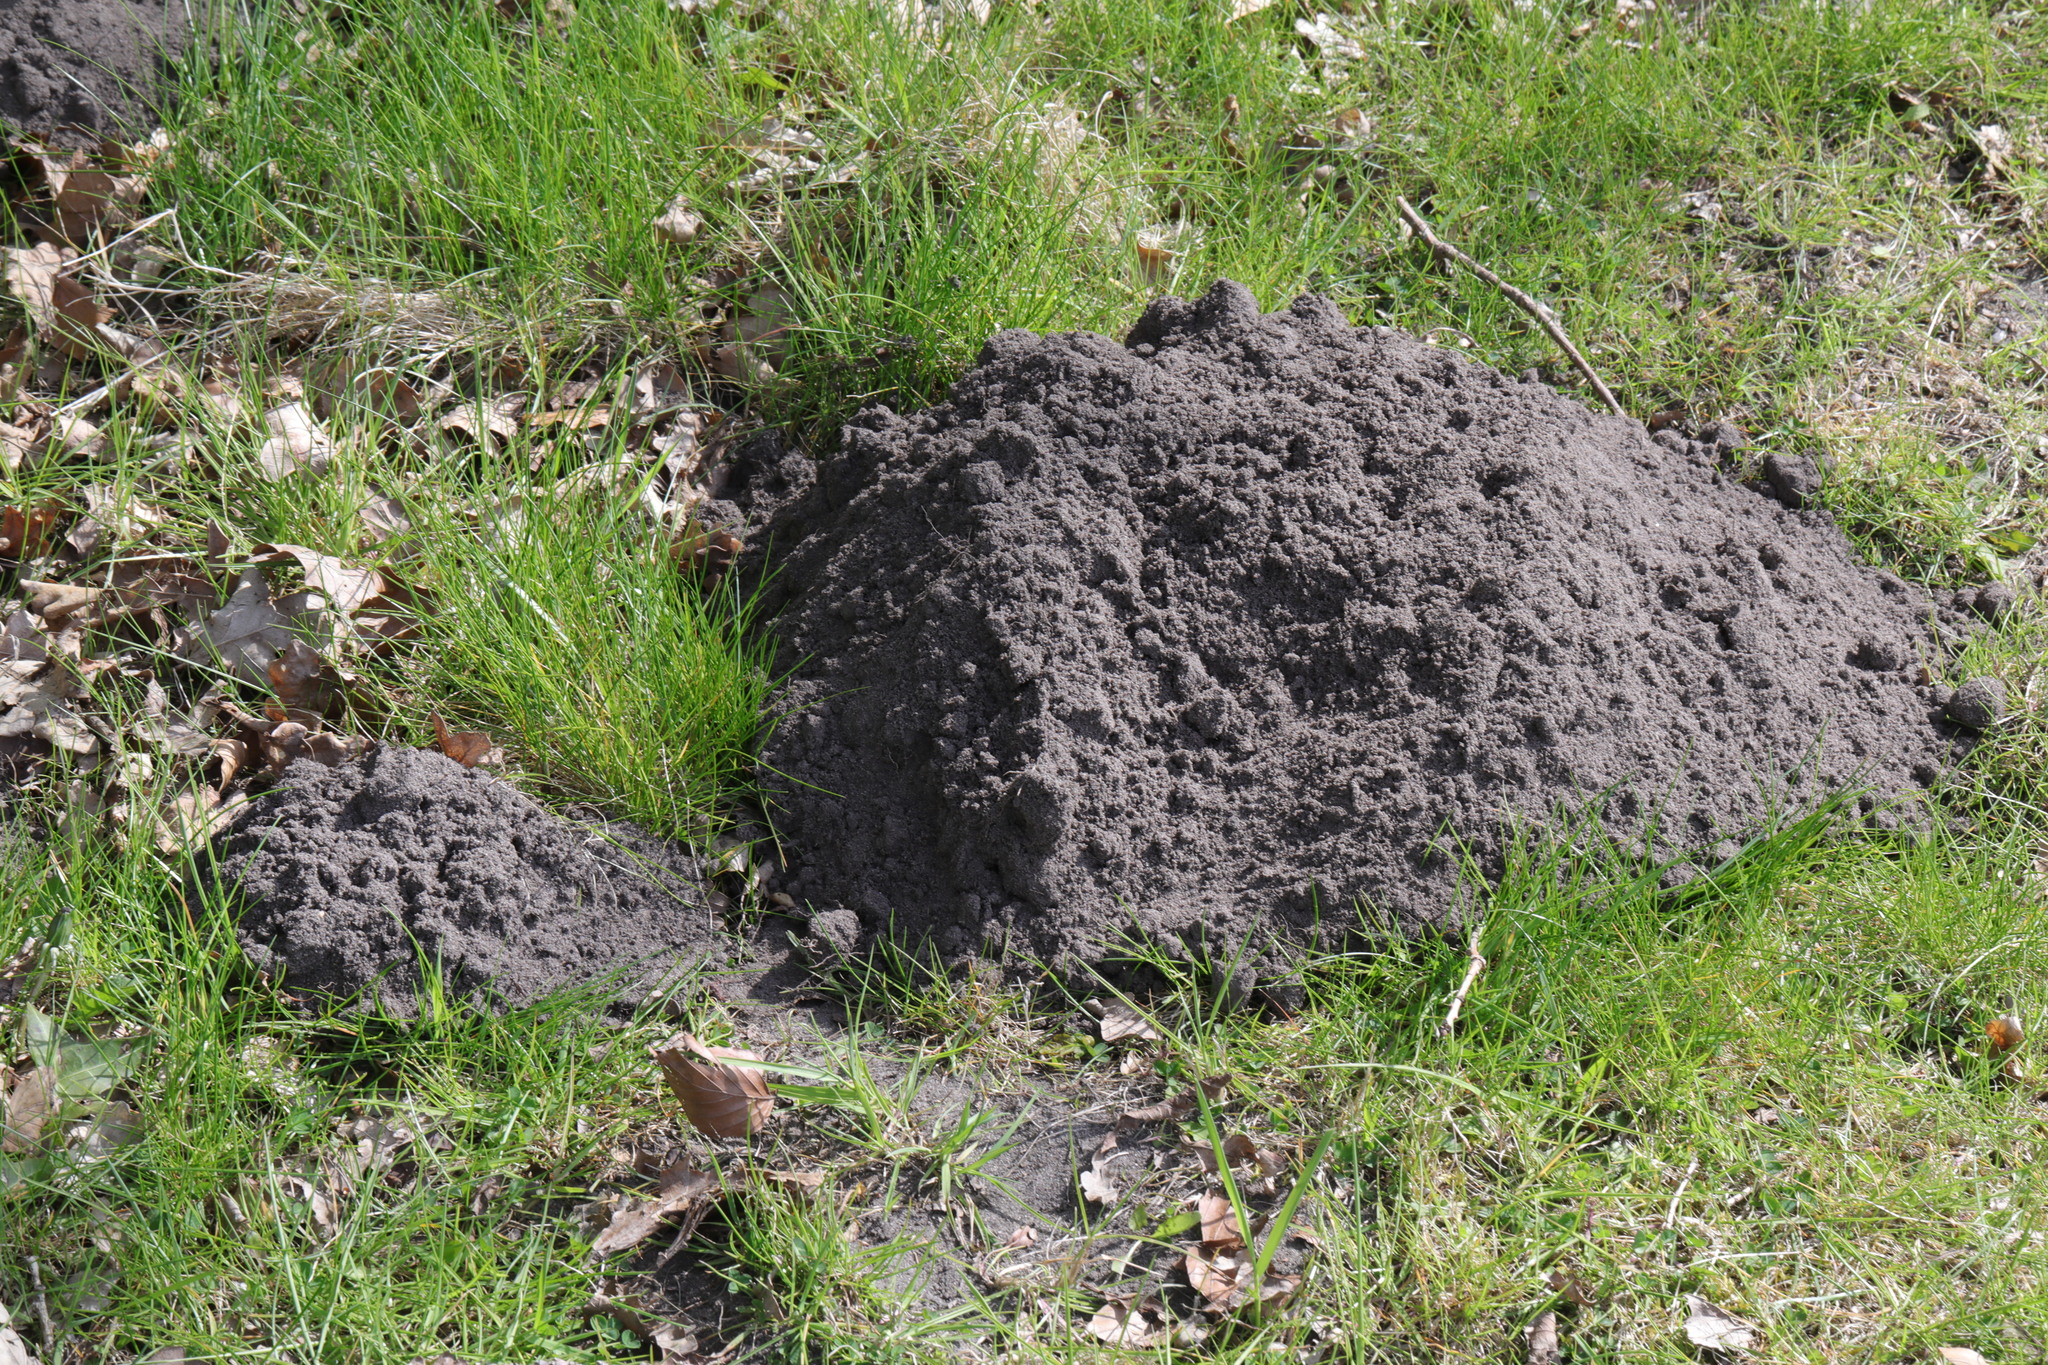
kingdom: Animalia
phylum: Chordata
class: Mammalia
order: Soricomorpha
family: Talpidae
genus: Talpa
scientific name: Talpa europaea
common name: European mole
